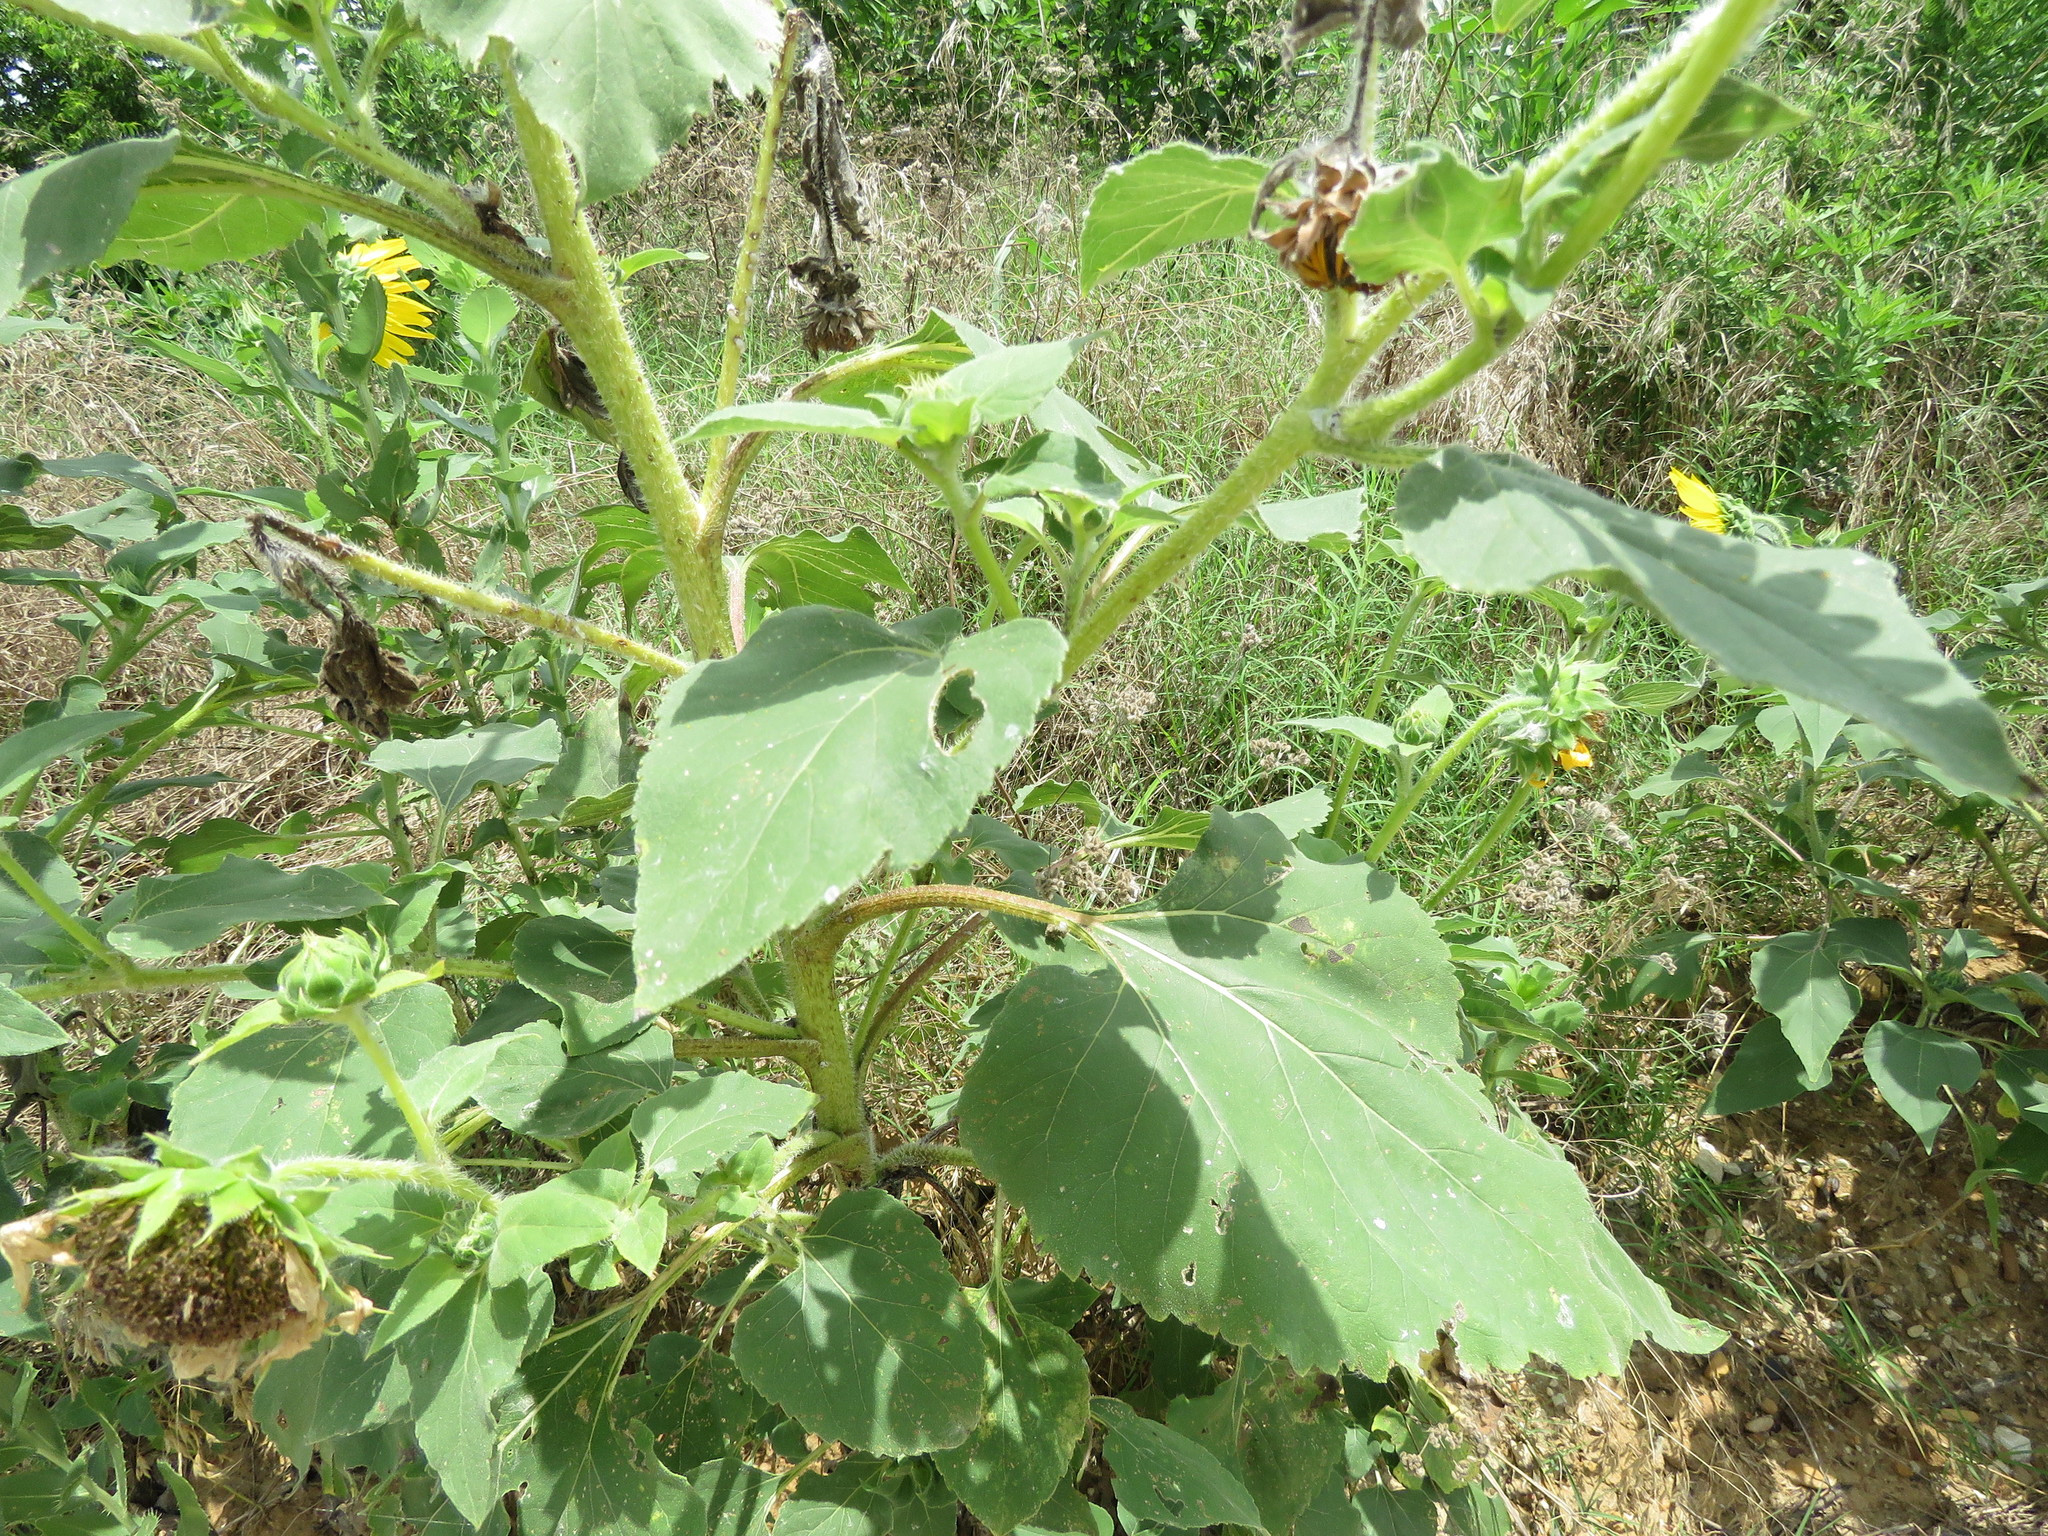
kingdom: Plantae
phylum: Tracheophyta
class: Magnoliopsida
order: Asterales
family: Asteraceae
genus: Helianthus
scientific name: Helianthus annuus
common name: Sunflower
